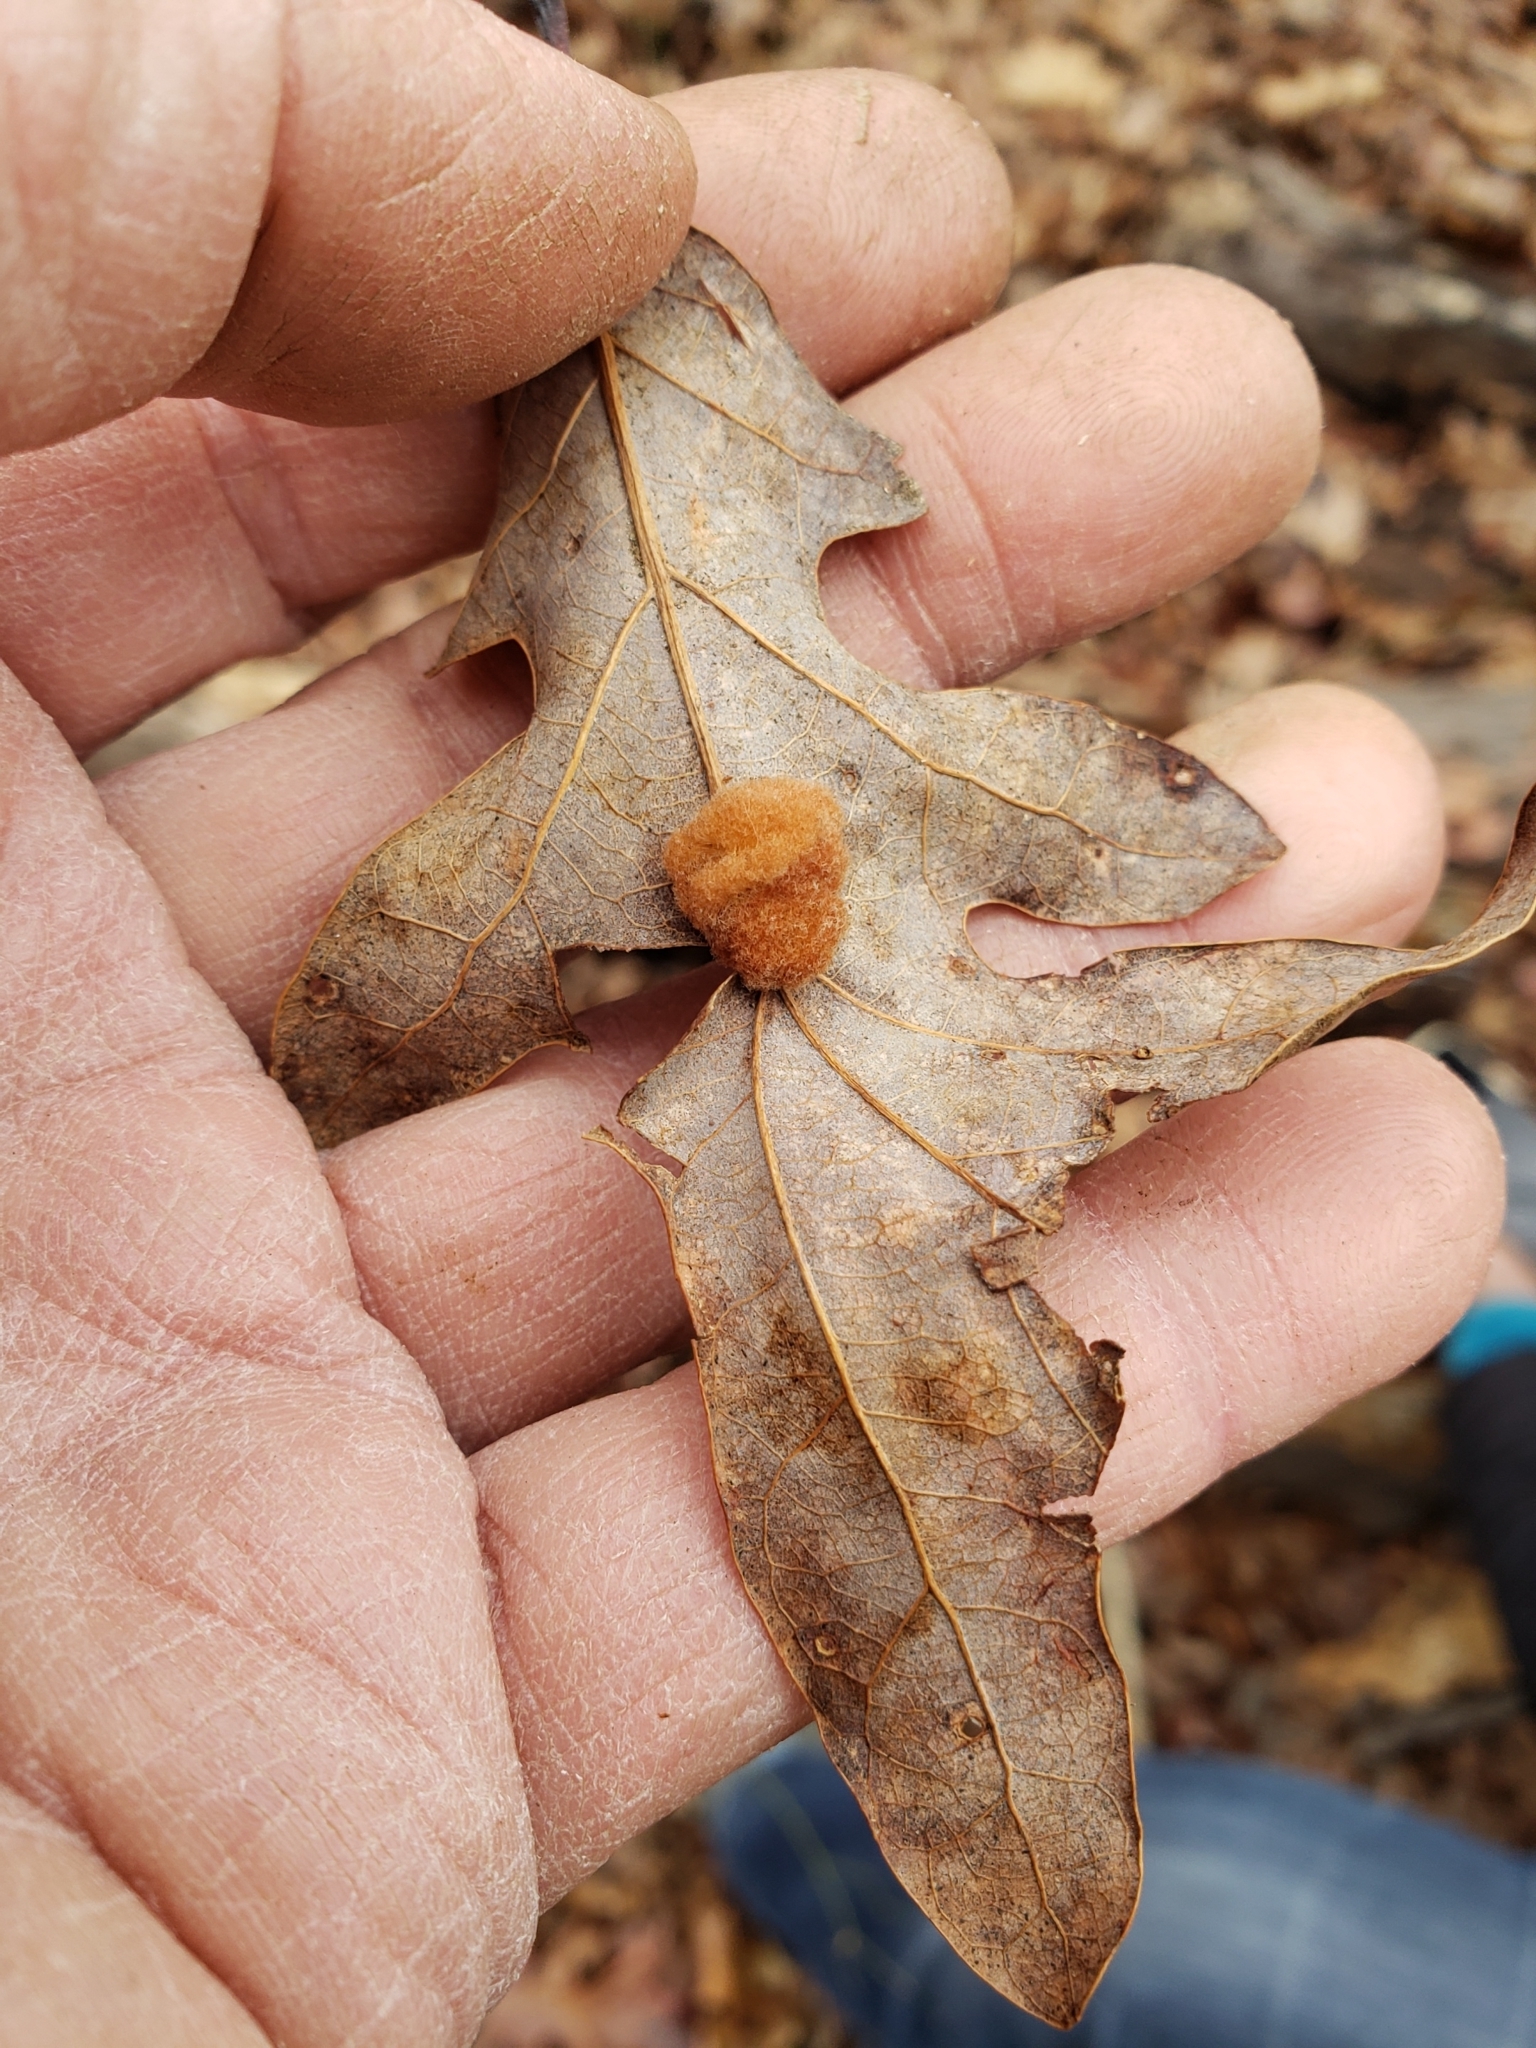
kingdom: Animalia
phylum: Arthropoda
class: Insecta
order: Hymenoptera
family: Cynipidae
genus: Andricus
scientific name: Andricus quercusflocci
